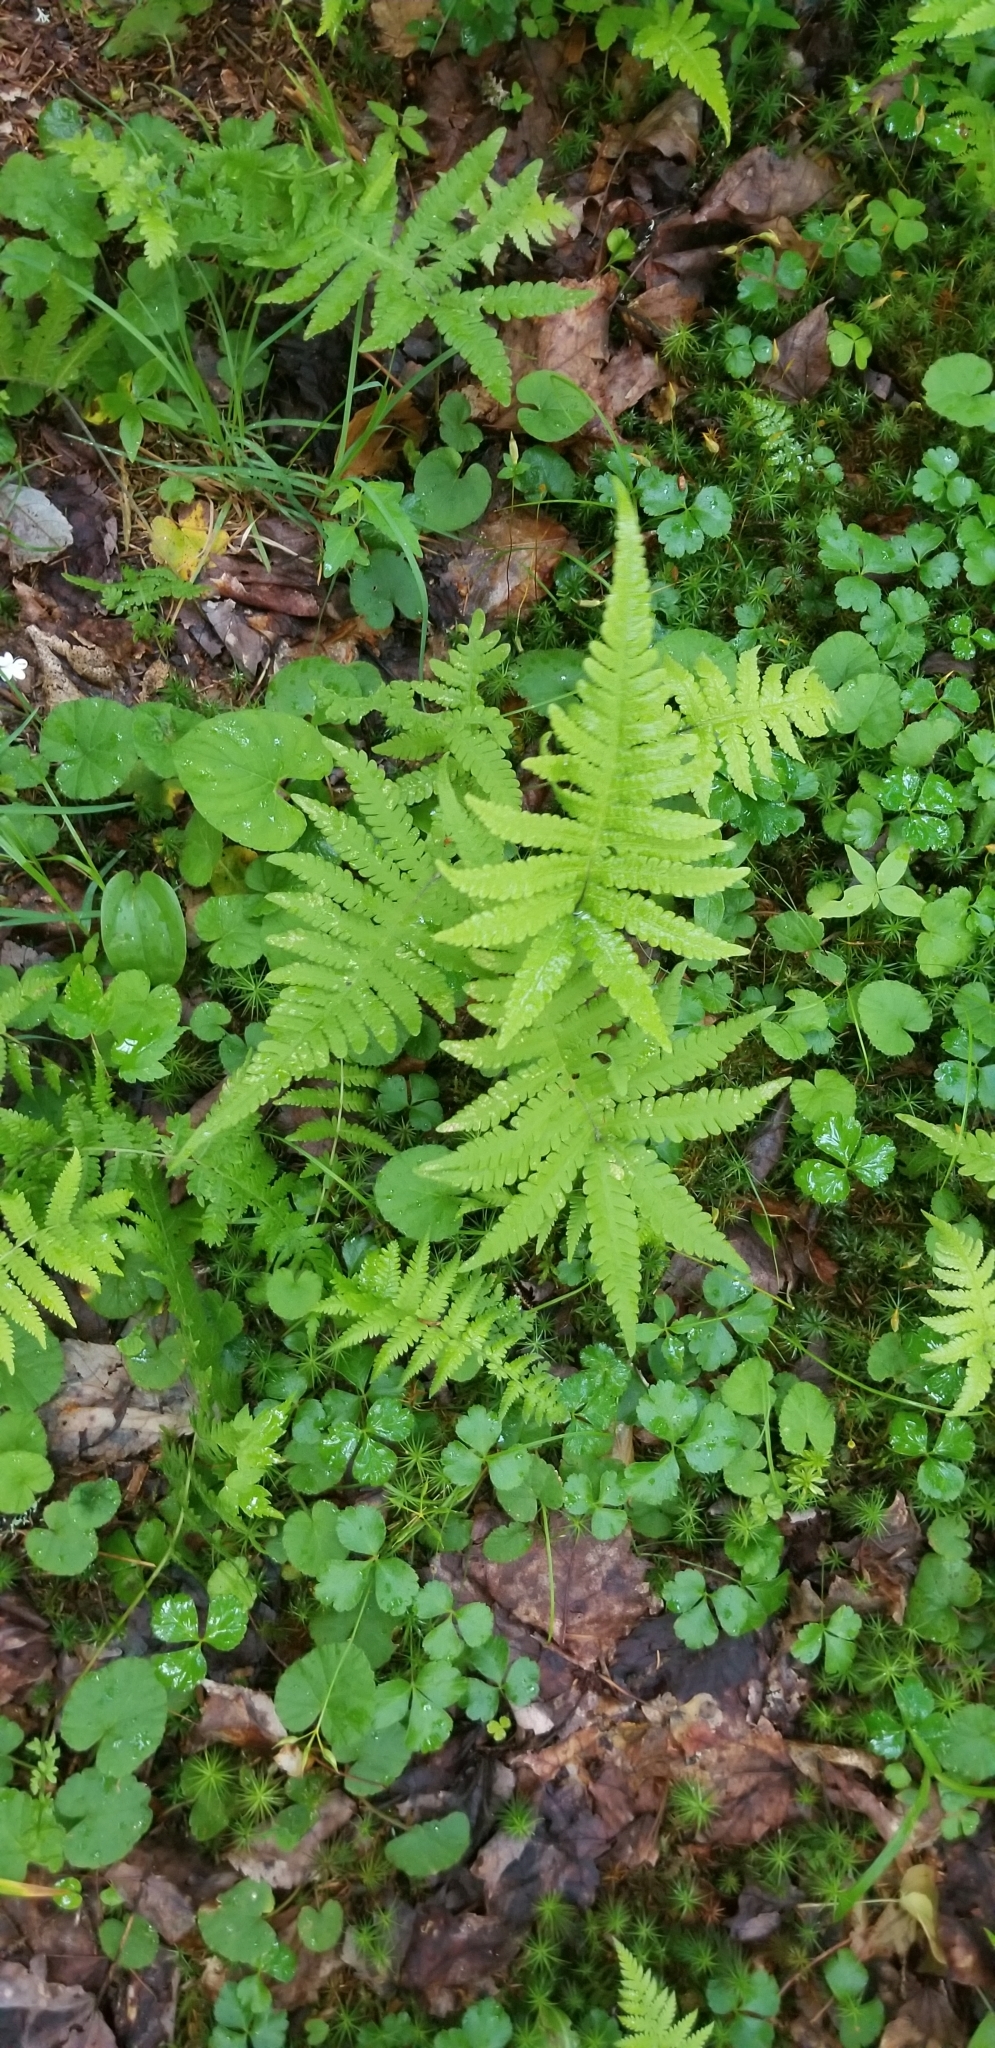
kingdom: Plantae
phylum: Tracheophyta
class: Polypodiopsida
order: Polypodiales
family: Thelypteridaceae
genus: Phegopteris
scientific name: Phegopteris connectilis
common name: Beech fern
